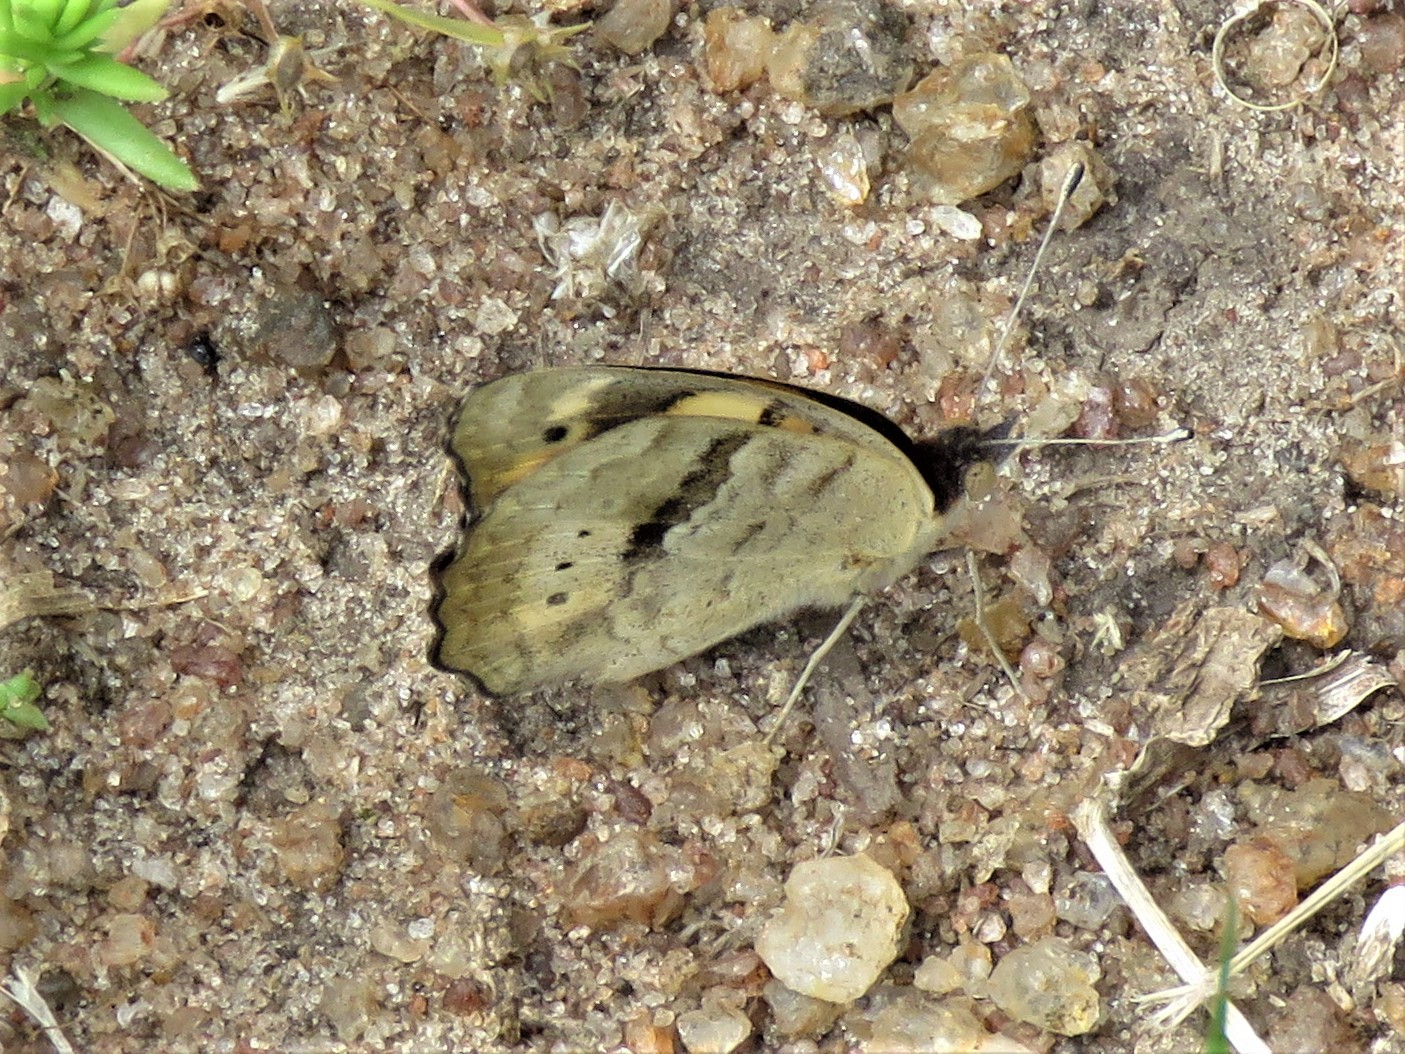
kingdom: Animalia
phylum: Arthropoda
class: Insecta
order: Lepidoptera
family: Nymphalidae
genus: Junonia
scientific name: Junonia hierta
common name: Yellow pansy
